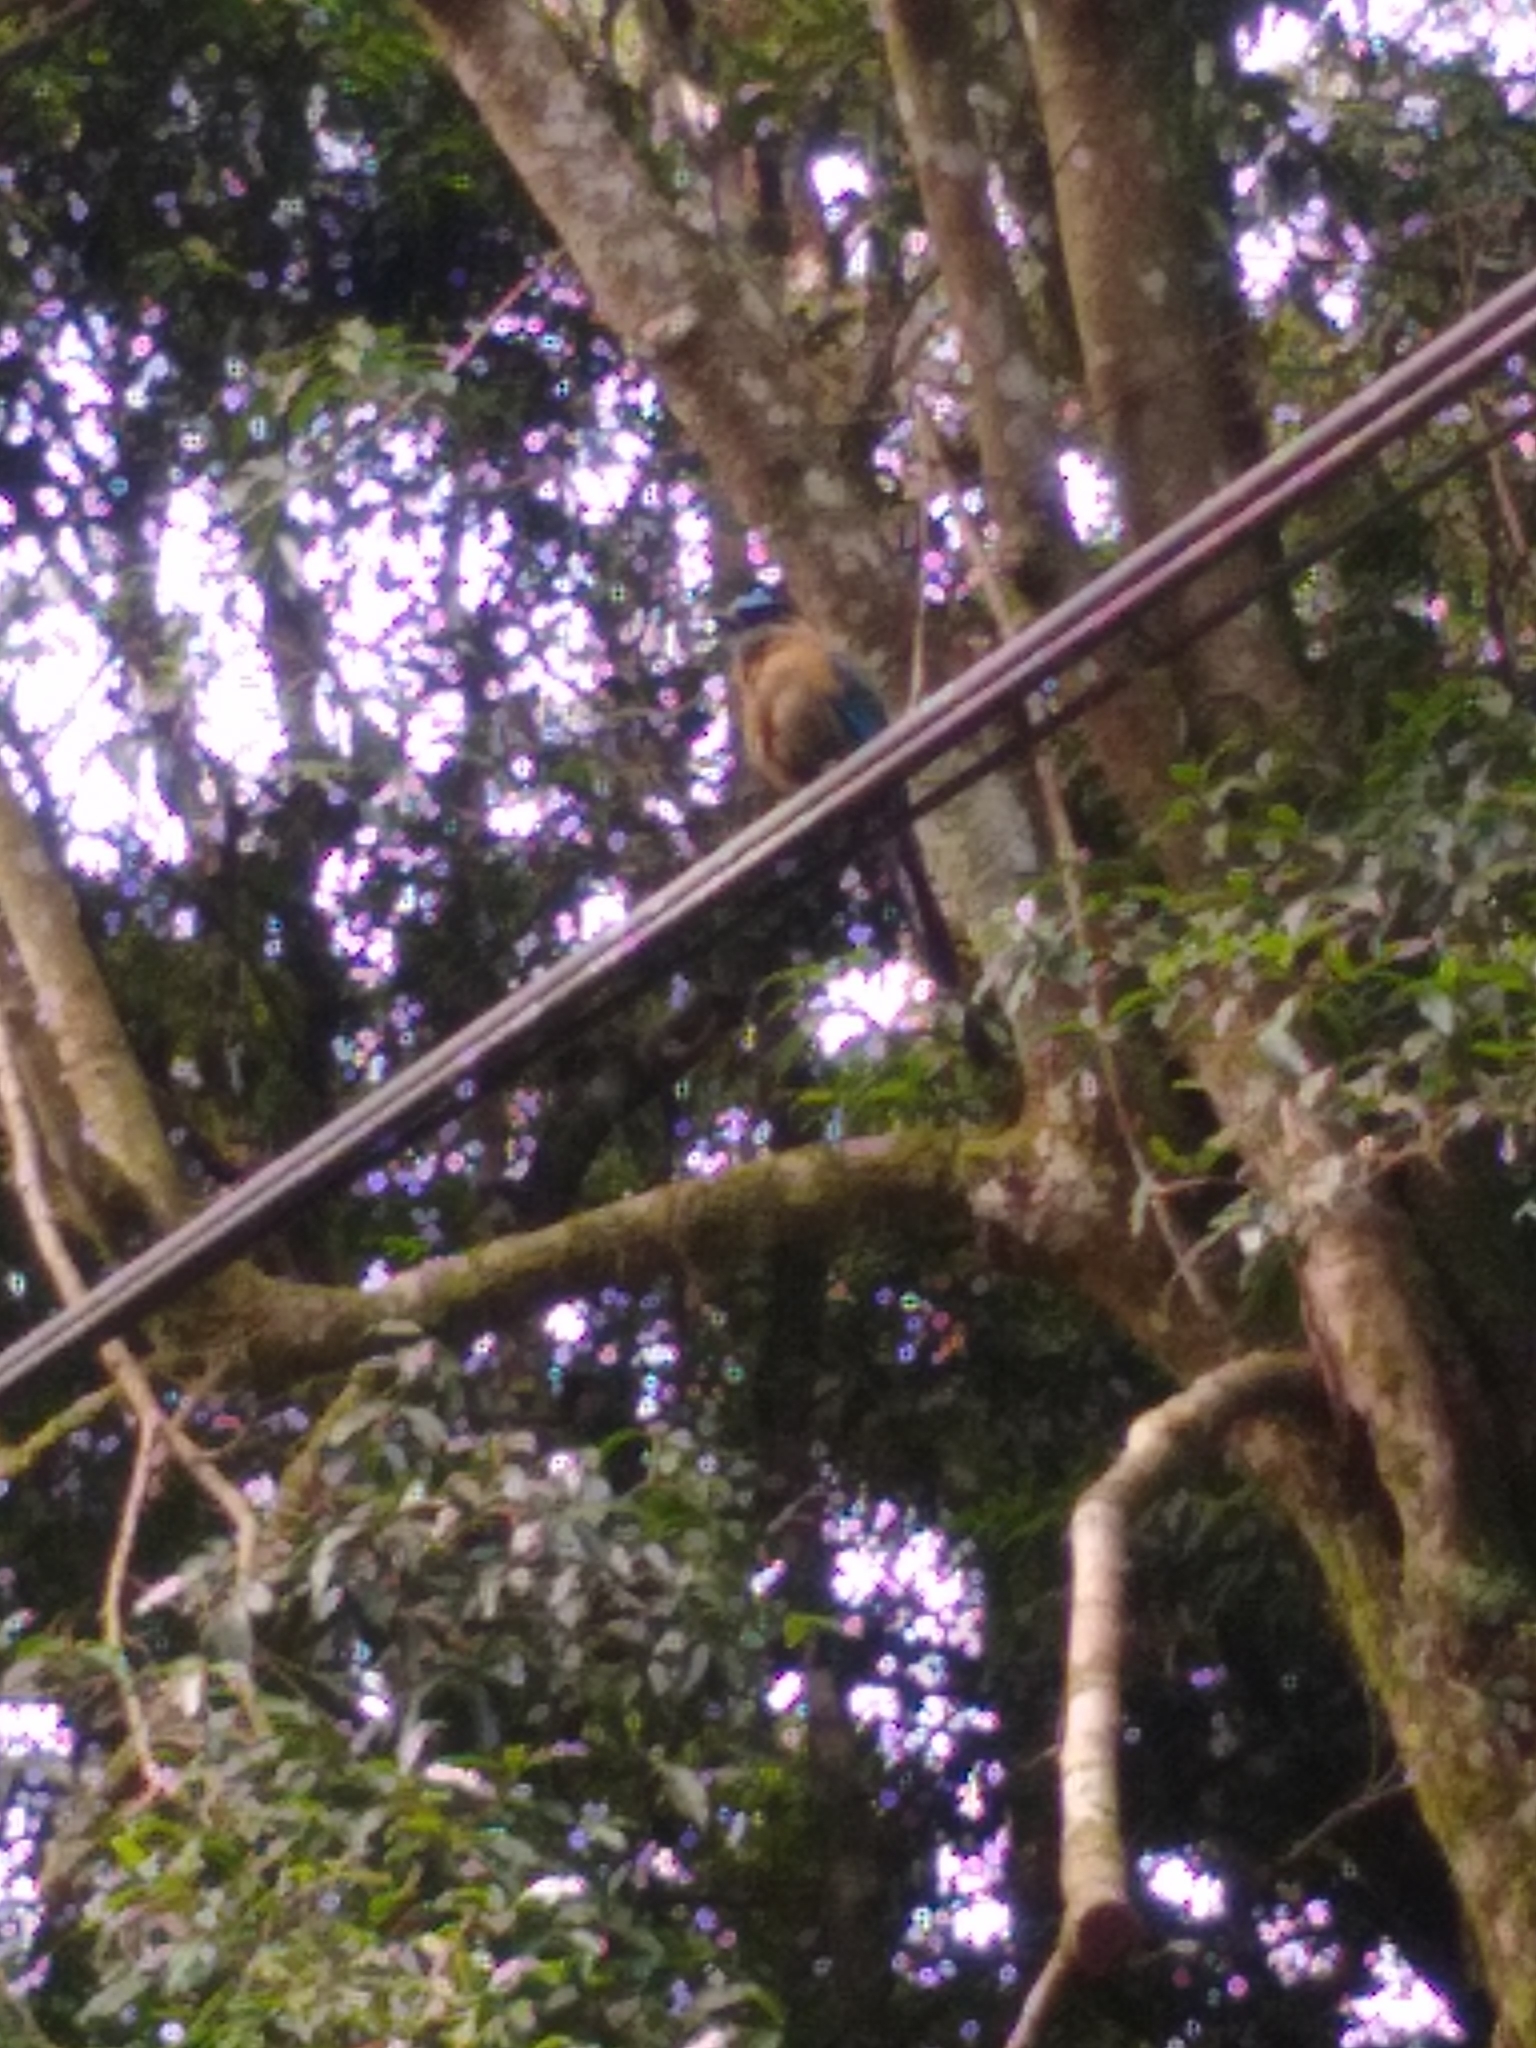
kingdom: Animalia
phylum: Chordata
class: Aves
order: Coraciiformes
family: Momotidae
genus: Momotus
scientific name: Momotus lessonii
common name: Lesson's motmot
